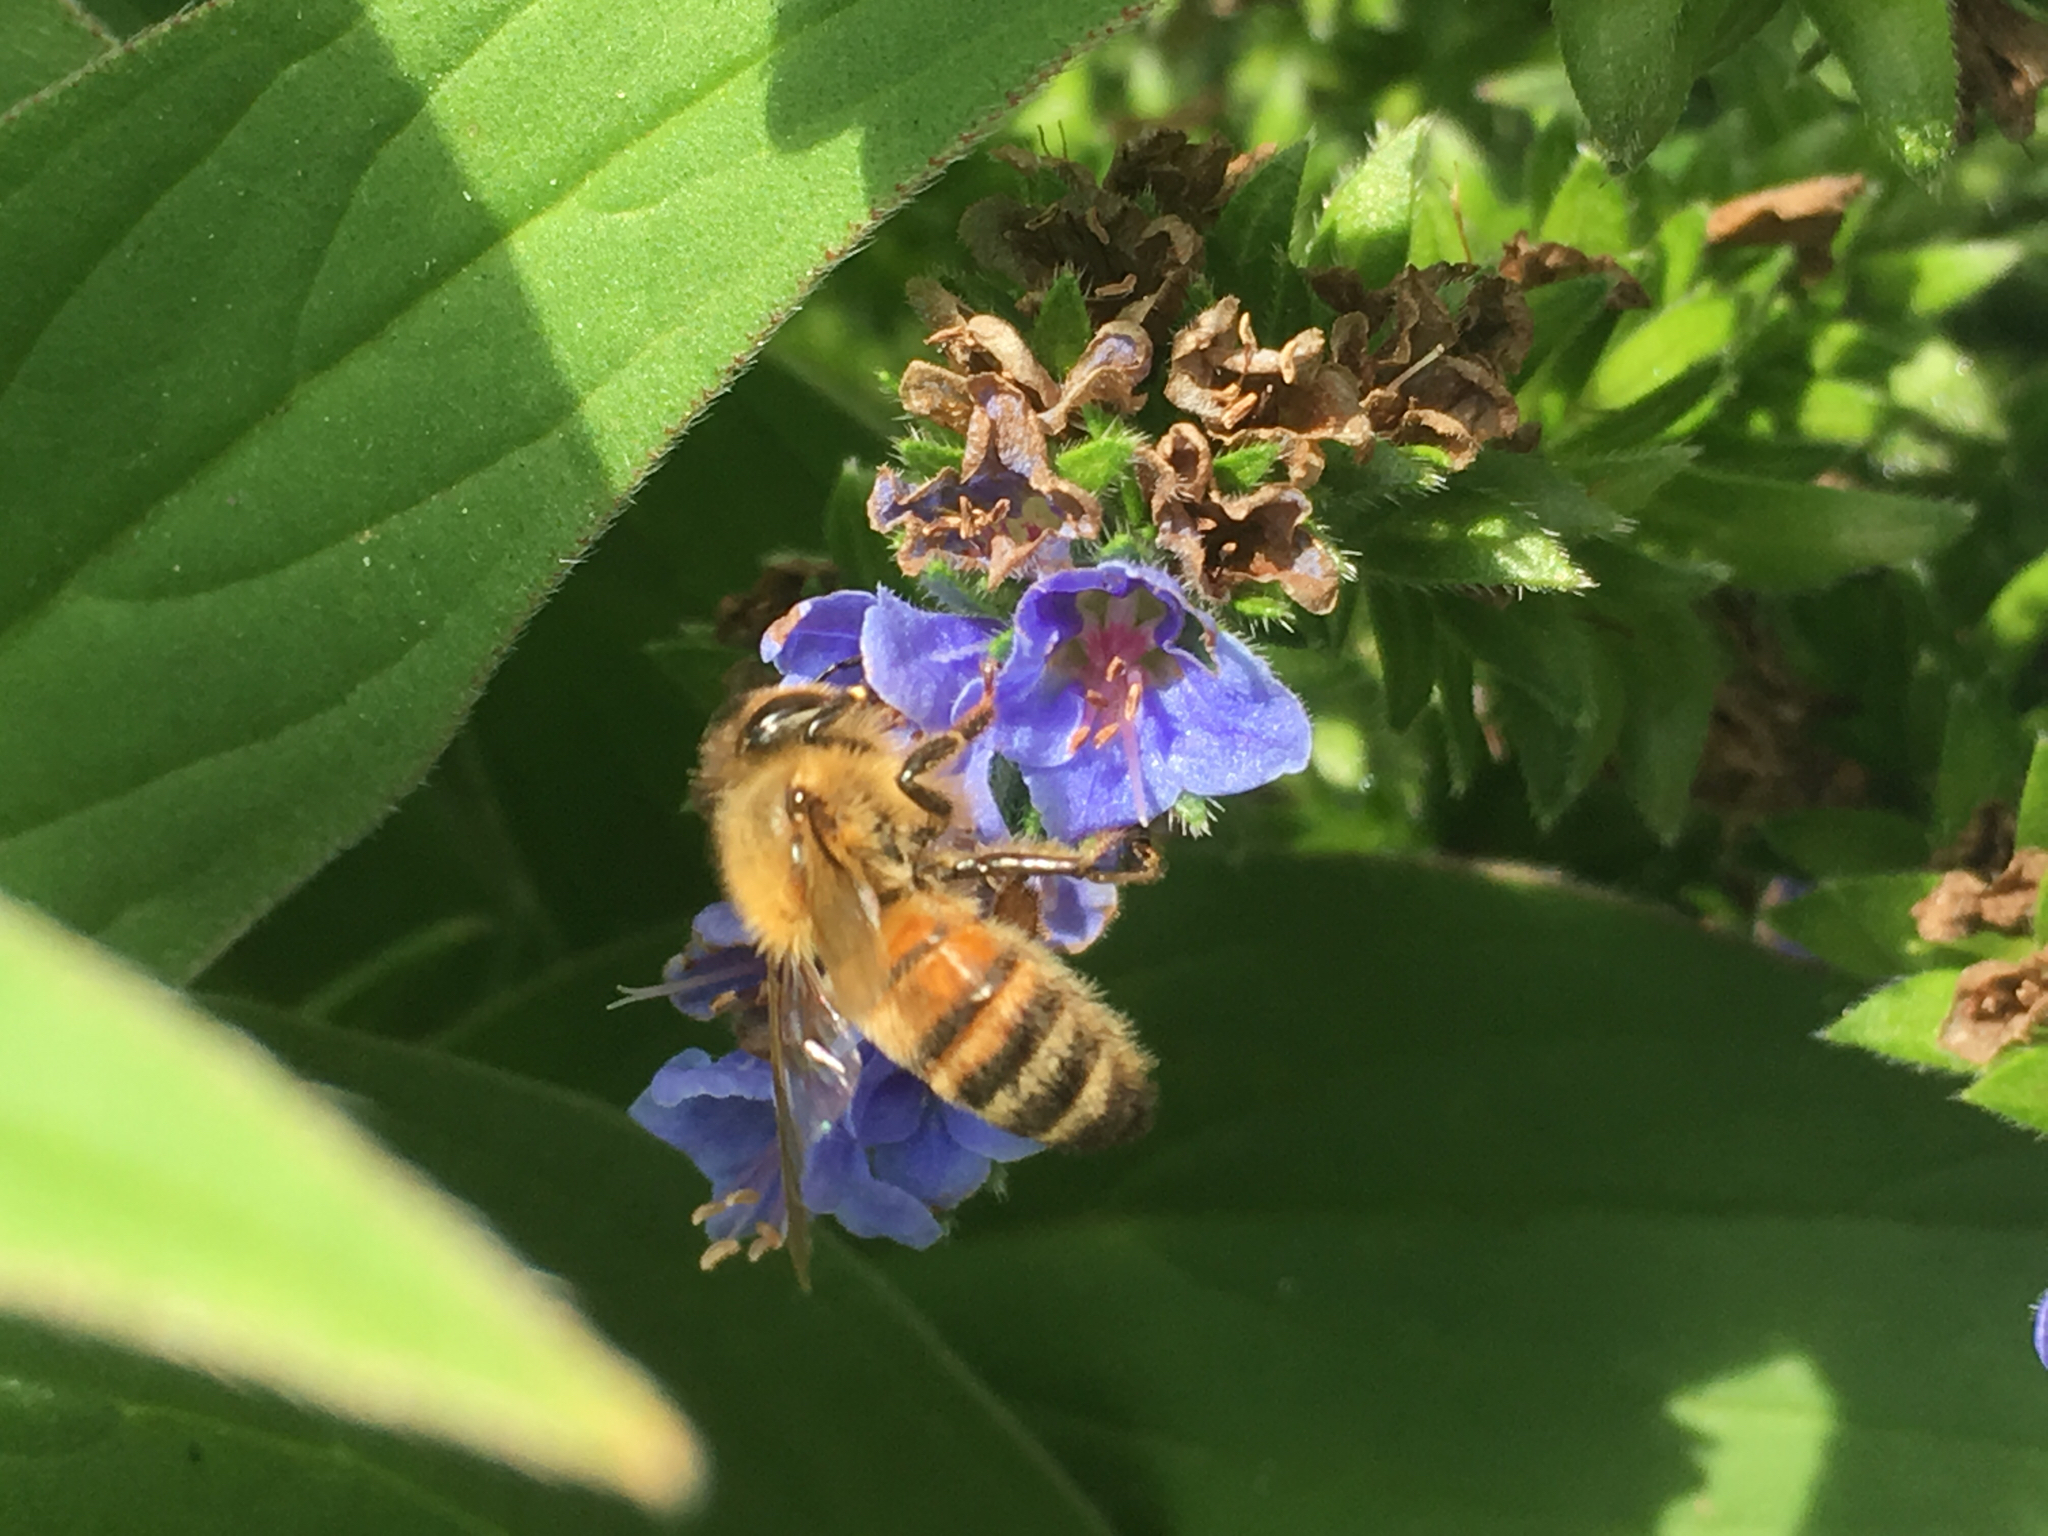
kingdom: Animalia
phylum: Arthropoda
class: Insecta
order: Hymenoptera
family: Apidae
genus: Apis
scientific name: Apis mellifera
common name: Honey bee
